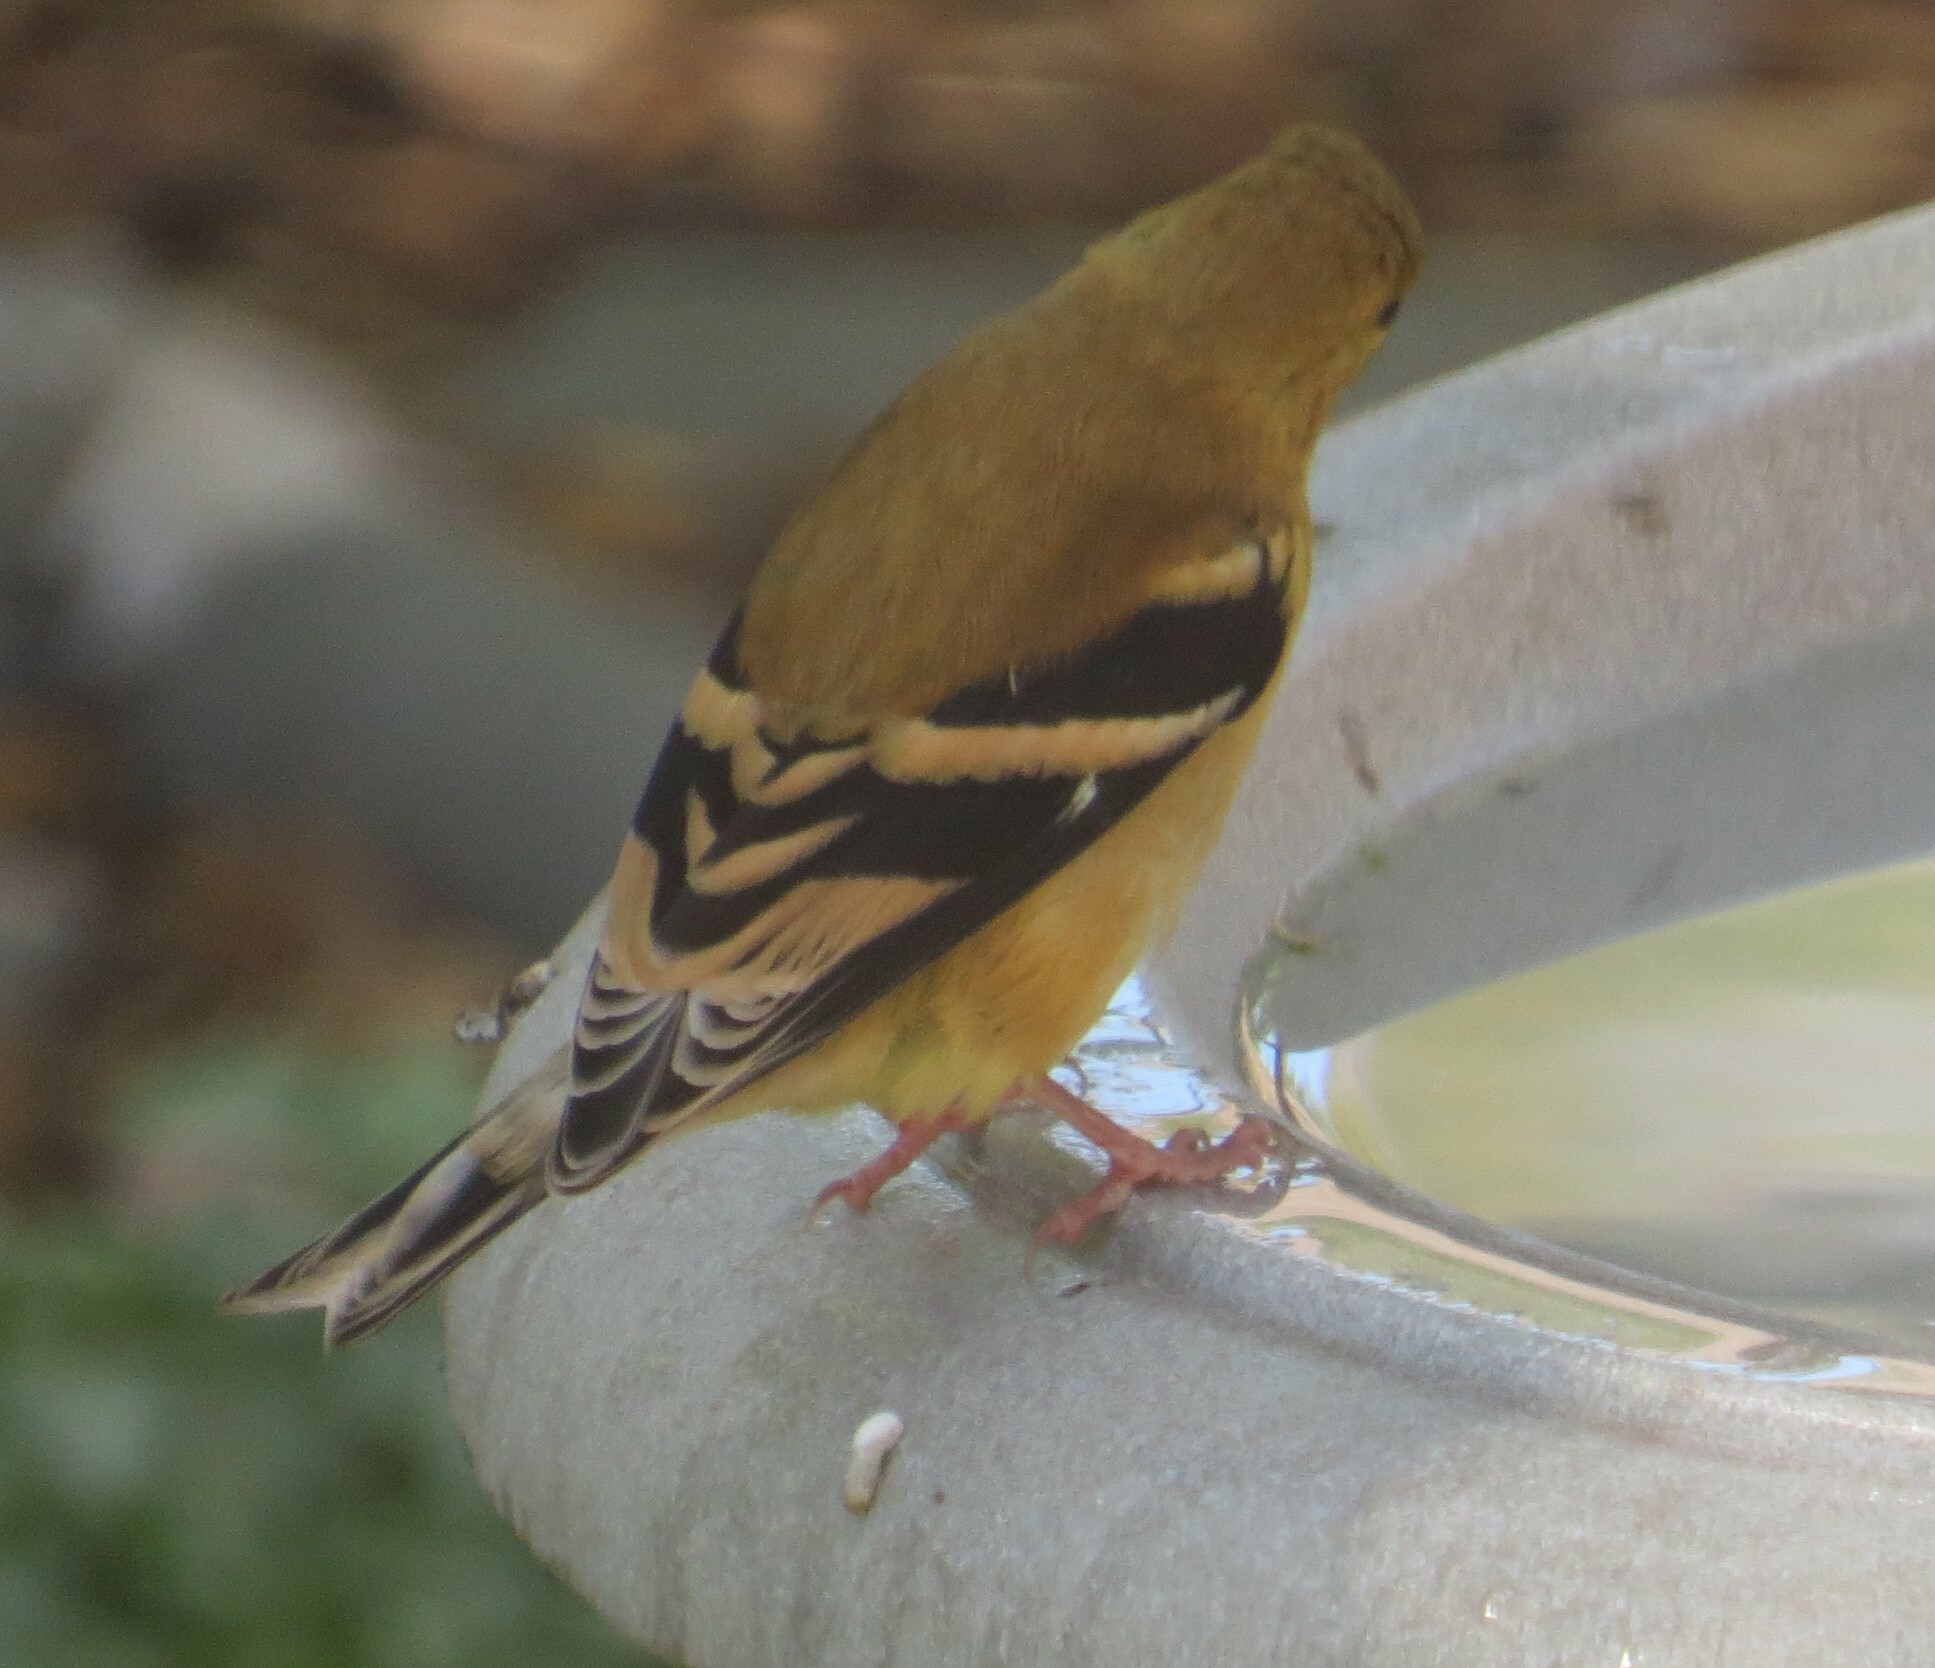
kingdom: Animalia
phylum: Chordata
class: Aves
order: Passeriformes
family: Fringillidae
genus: Spinus
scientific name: Spinus tristis
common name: American goldfinch
